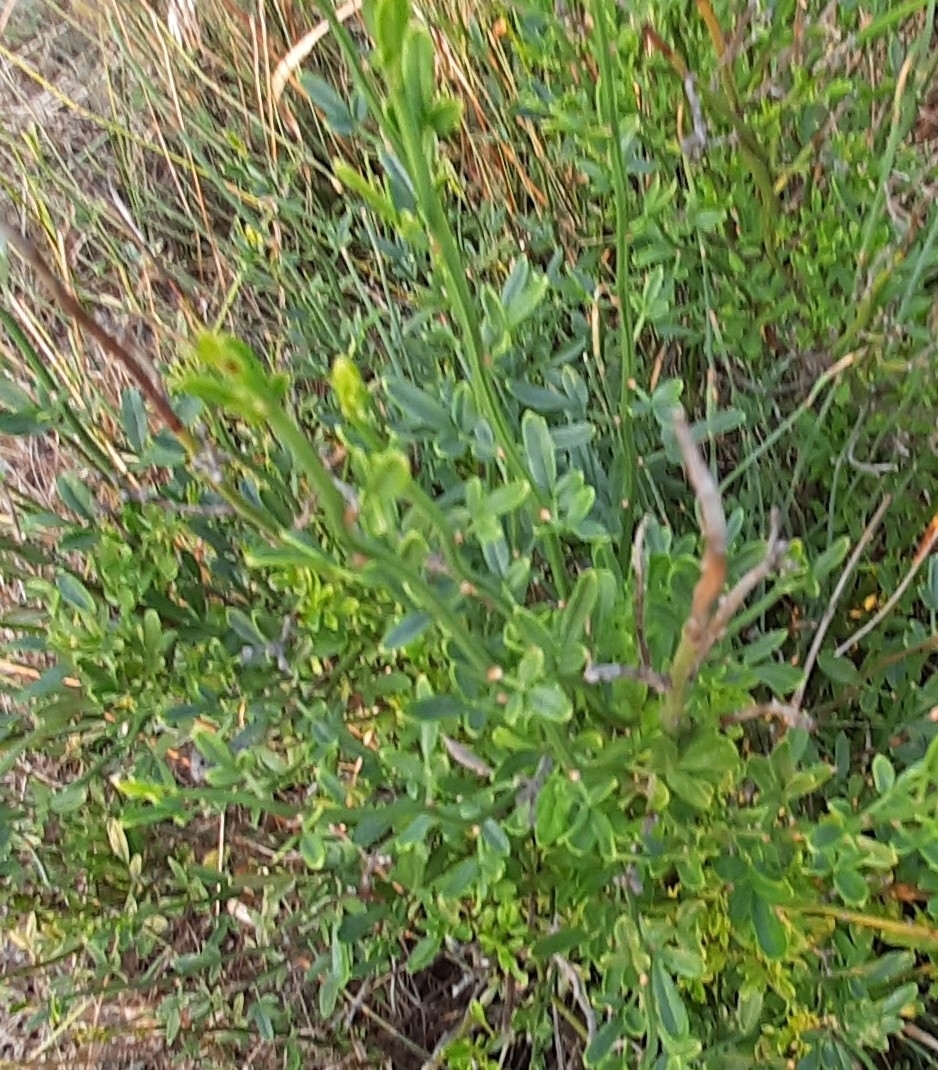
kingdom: Plantae
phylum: Tracheophyta
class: Magnoliopsida
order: Lamiales
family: Oleaceae
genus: Chrysojasminum
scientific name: Chrysojasminum fruticans
